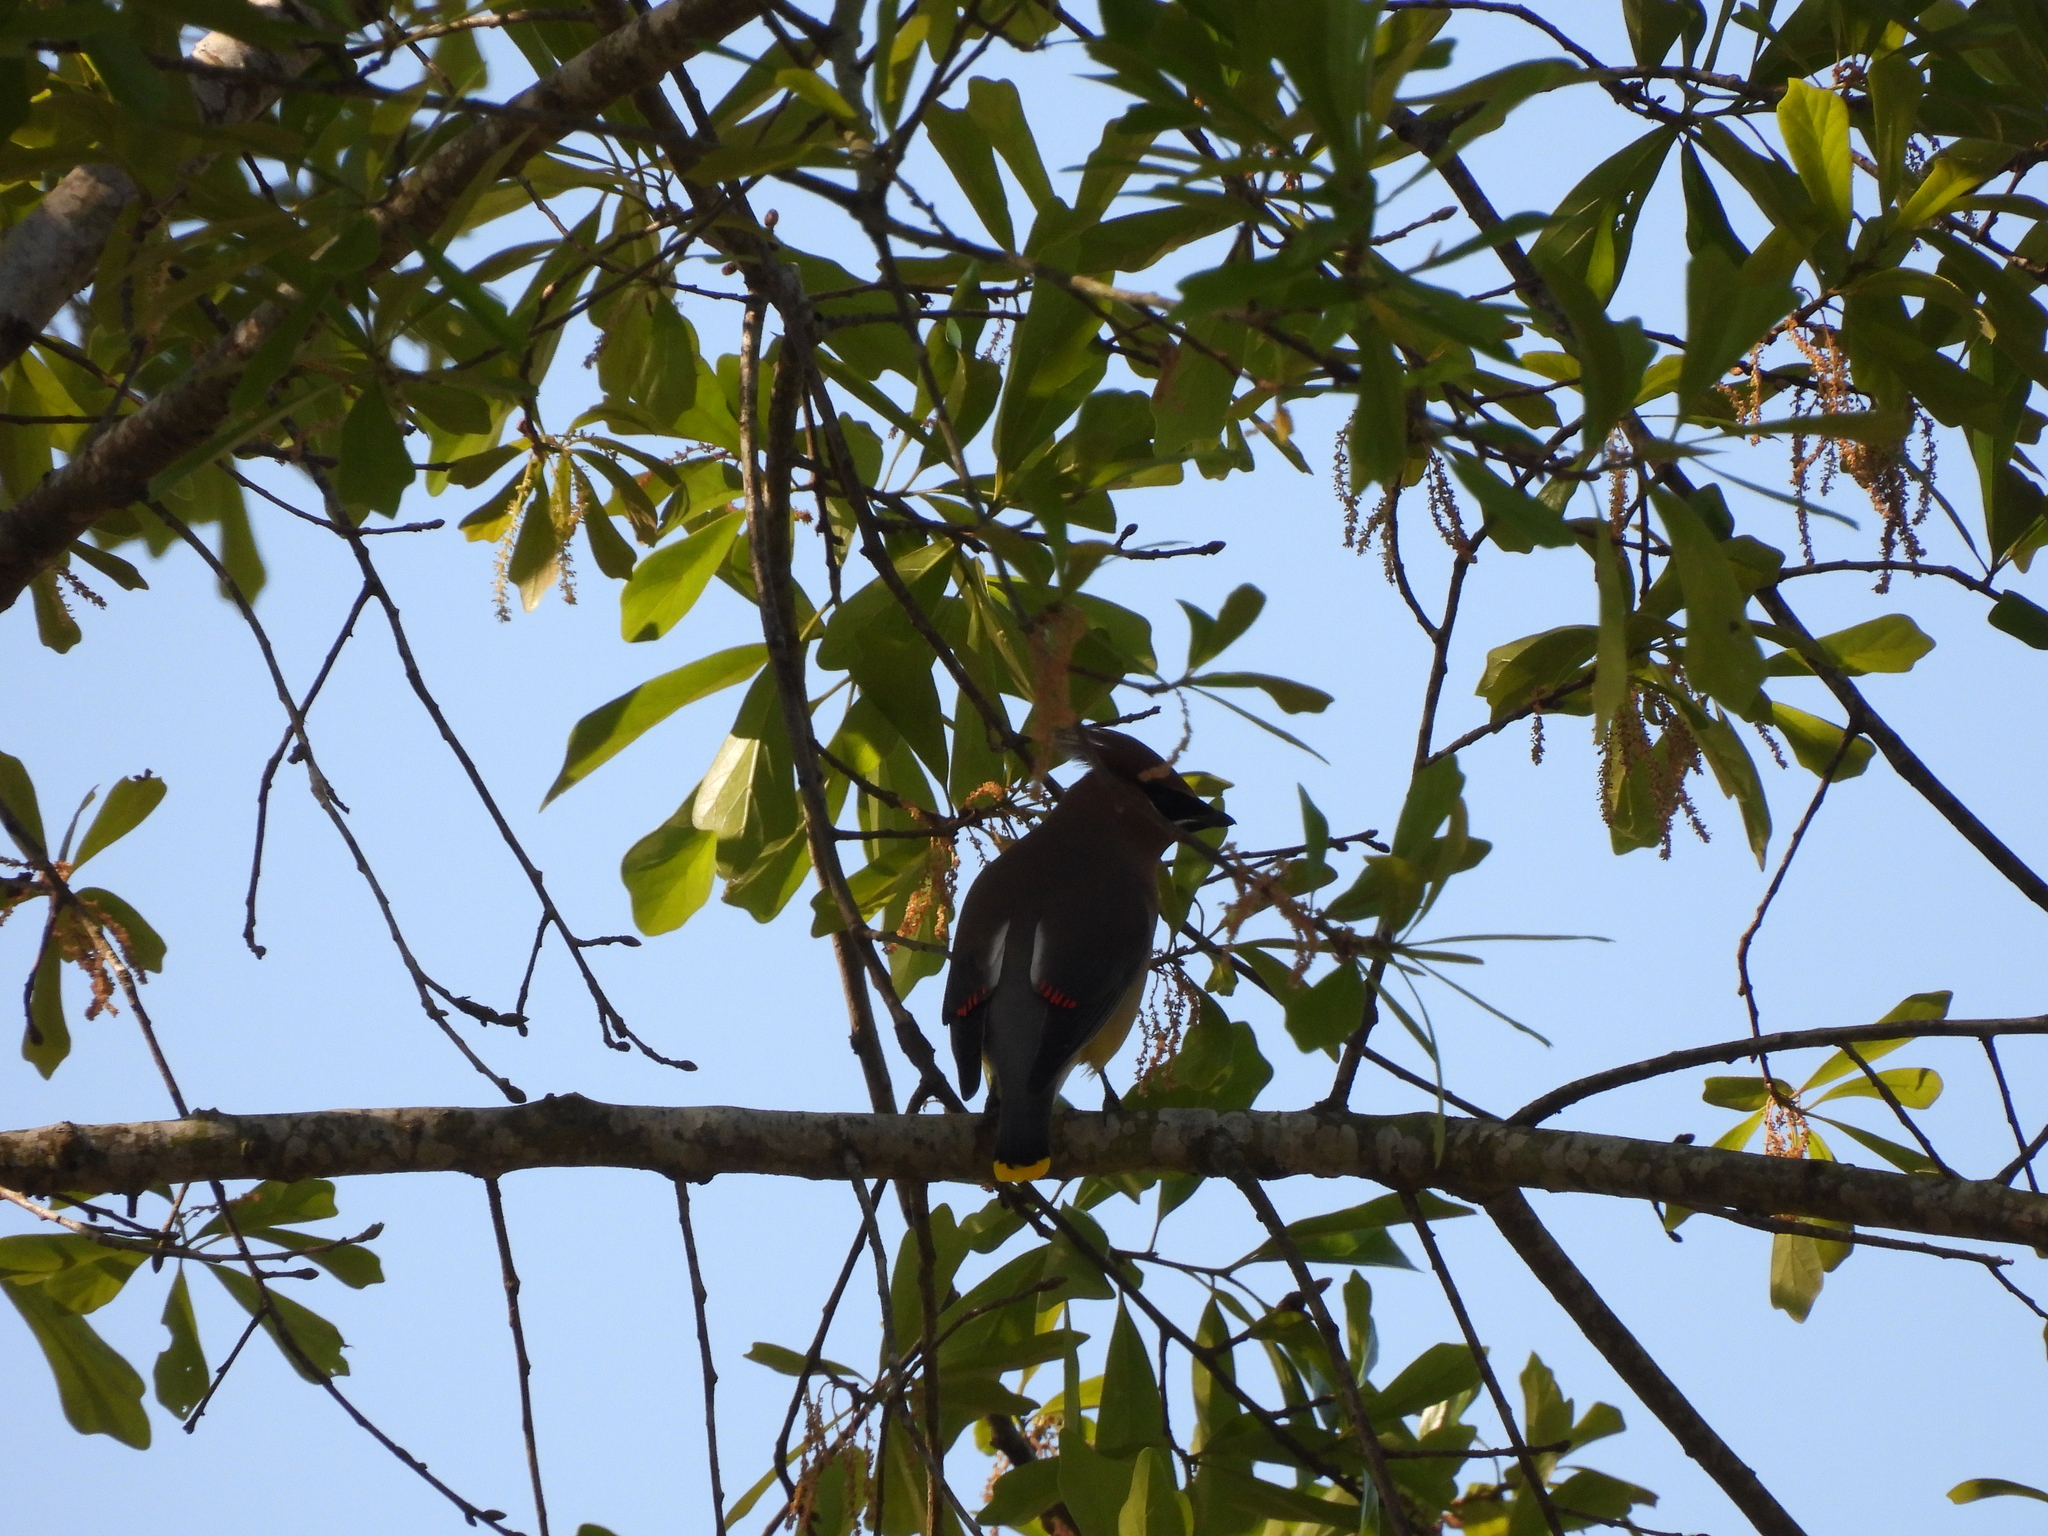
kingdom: Animalia
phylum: Chordata
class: Aves
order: Passeriformes
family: Bombycillidae
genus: Bombycilla
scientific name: Bombycilla cedrorum
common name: Cedar waxwing
